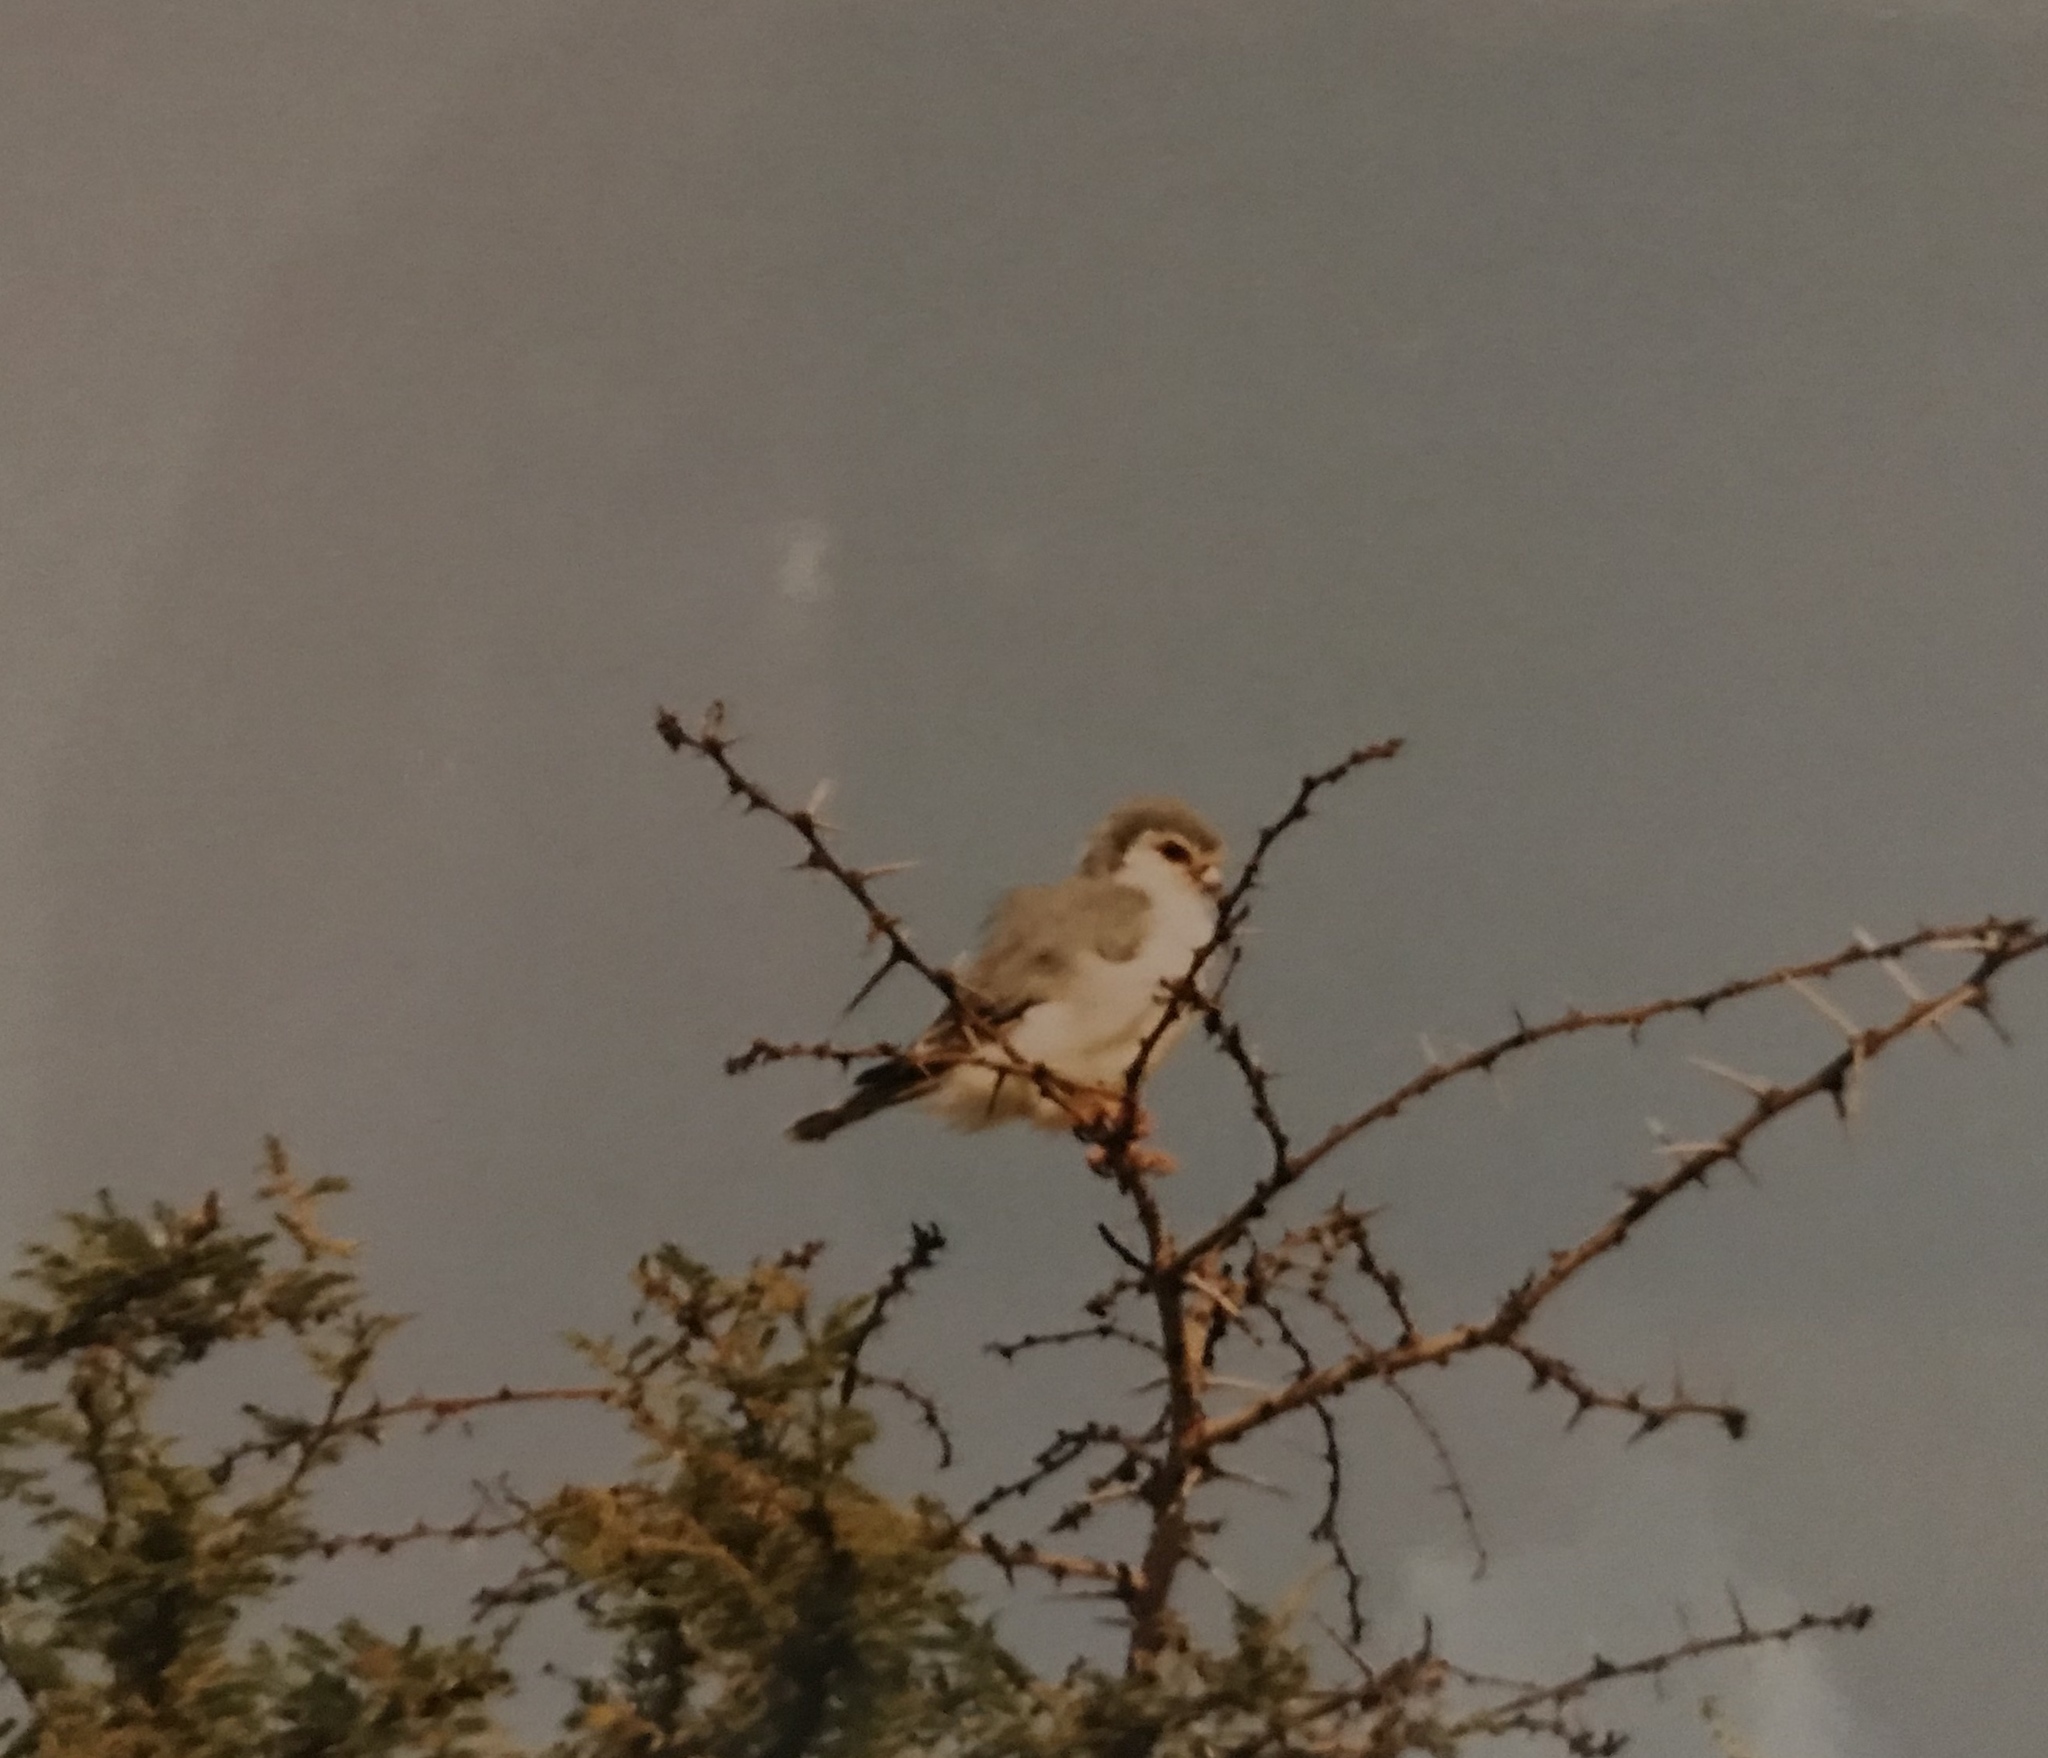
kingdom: Animalia
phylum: Chordata
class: Aves
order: Falconiformes
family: Falconidae
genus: Polihierax
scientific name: Polihierax semitorquatus
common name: Pygmy falcon
